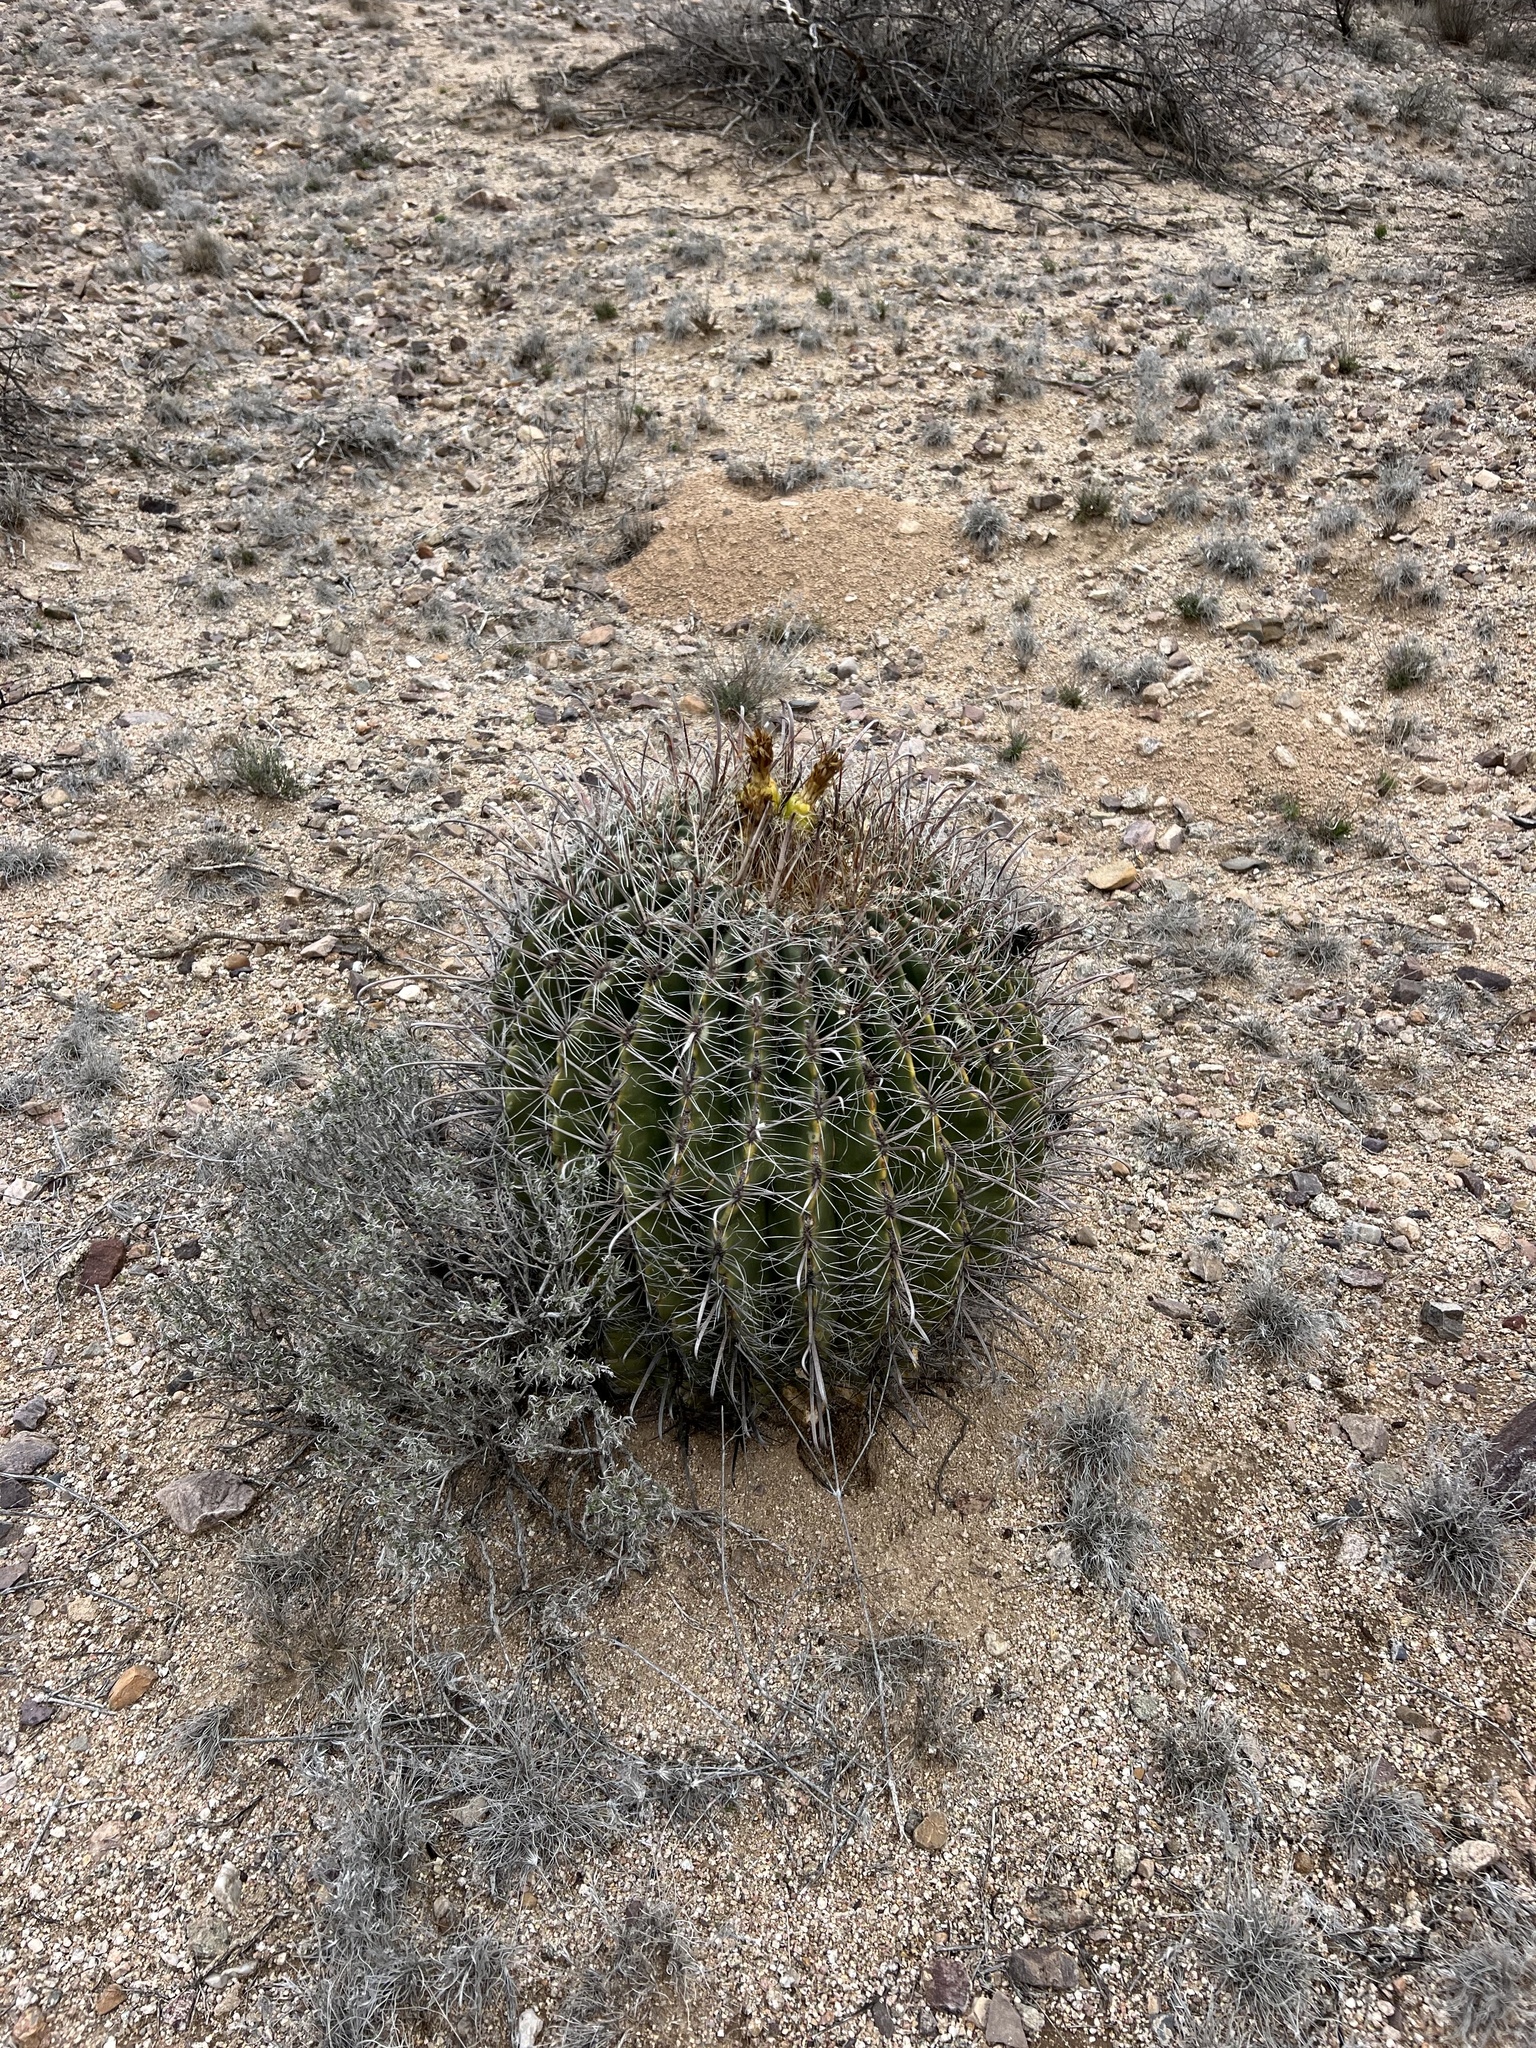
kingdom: Plantae
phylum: Tracheophyta
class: Magnoliopsida
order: Caryophyllales
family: Cactaceae
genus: Ferocactus
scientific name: Ferocactus wislizeni
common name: Candy barrel cactus
